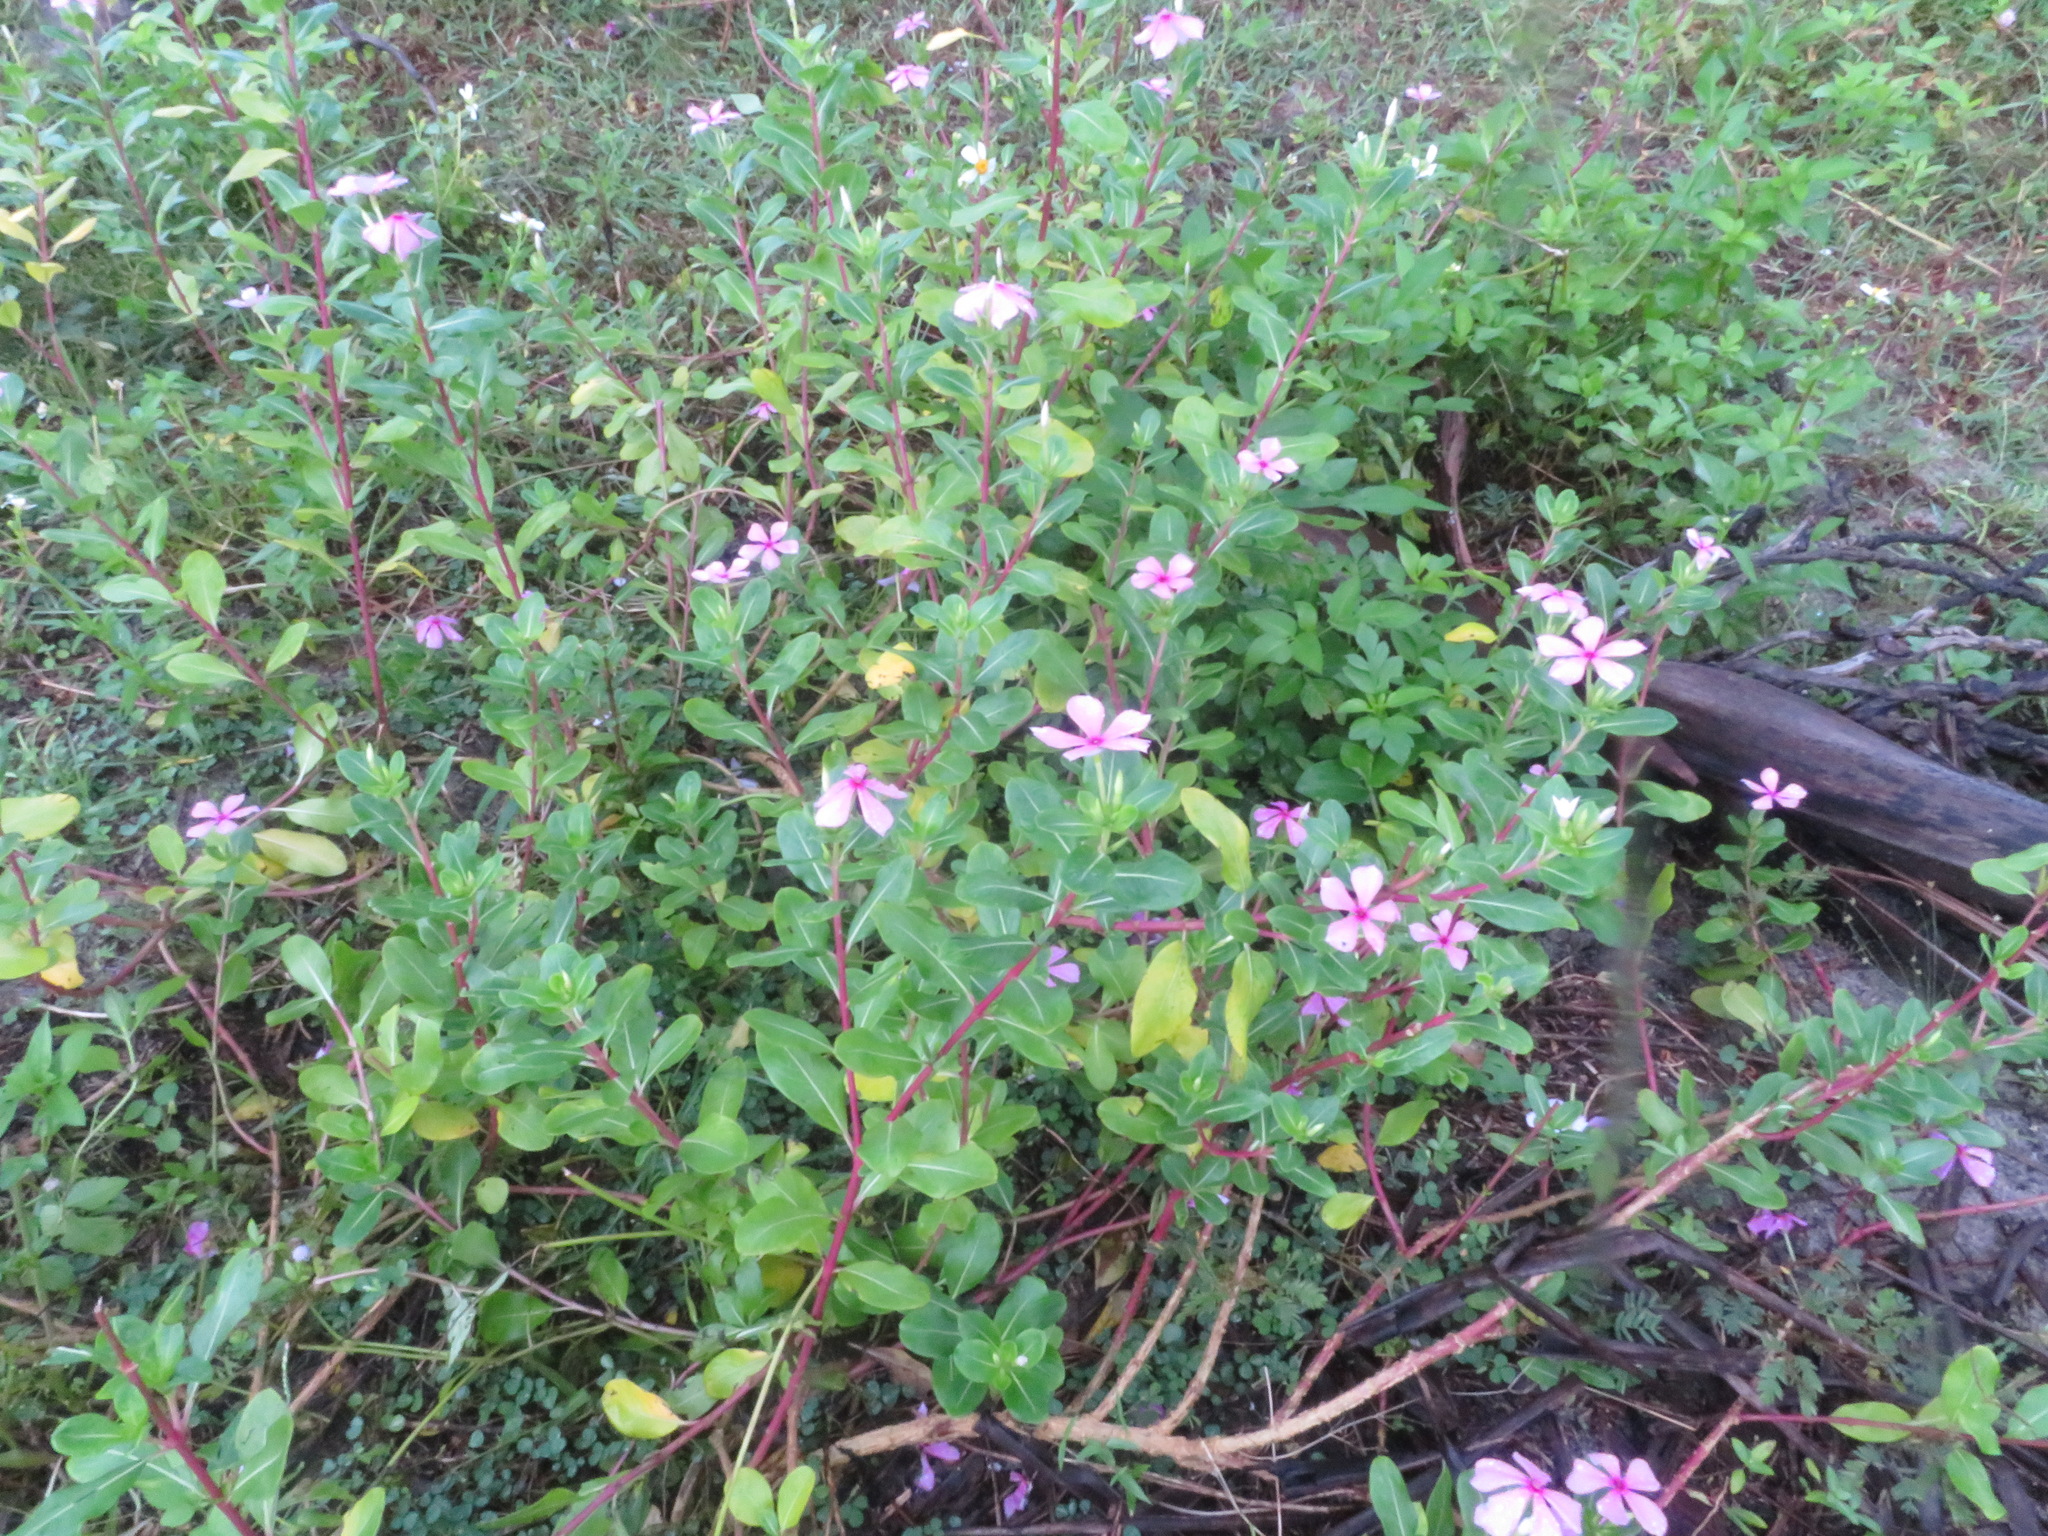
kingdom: Plantae
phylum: Tracheophyta
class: Magnoliopsida
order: Gentianales
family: Apocynaceae
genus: Catharanthus
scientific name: Catharanthus roseus
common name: Madagascar periwinkle
